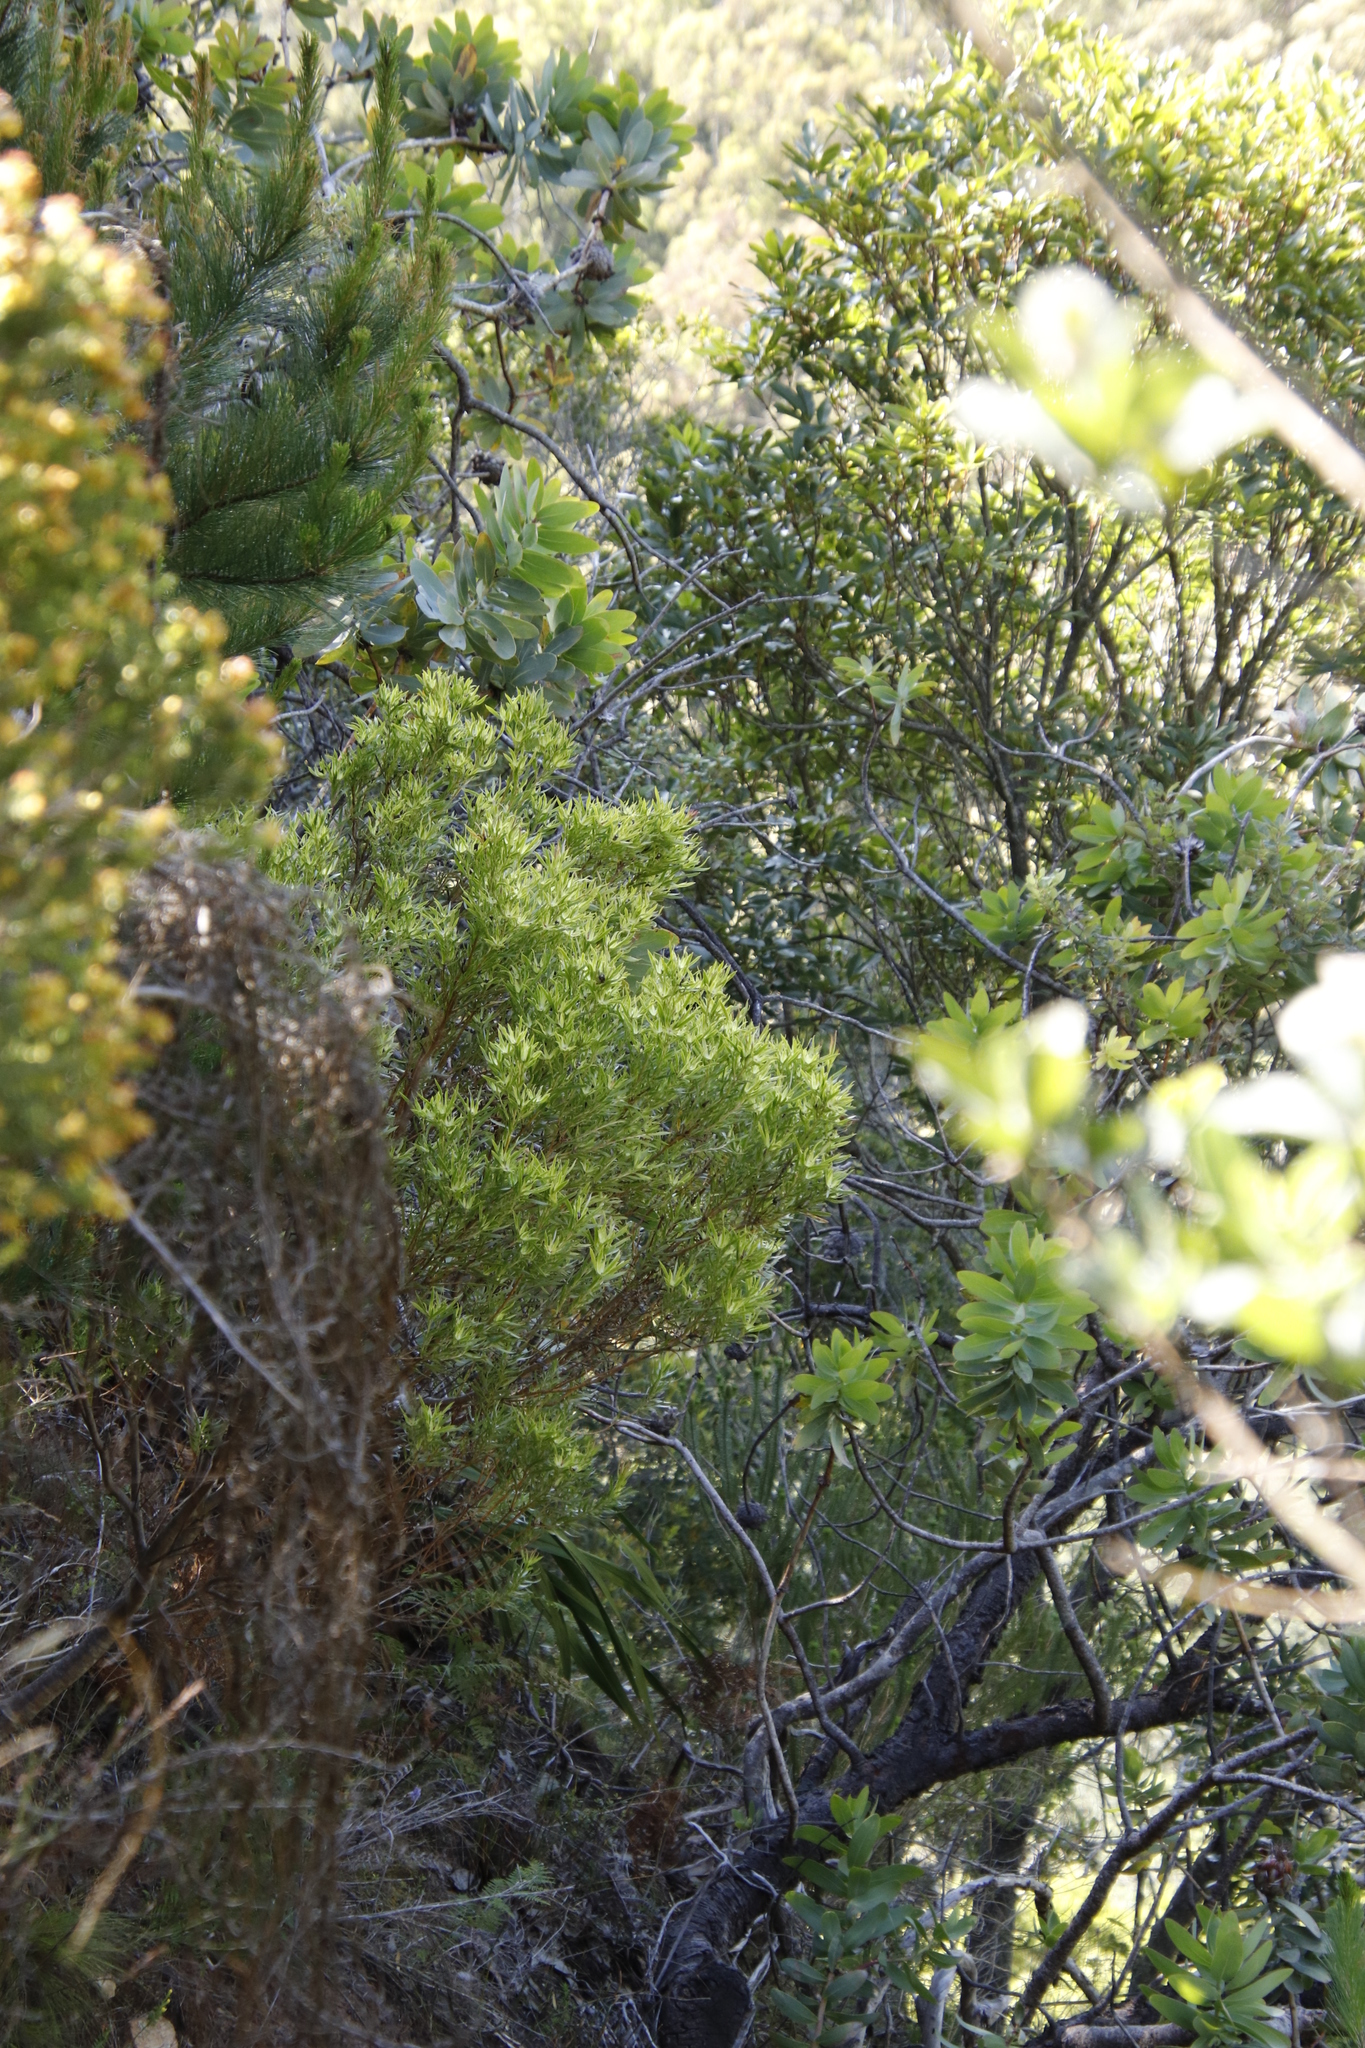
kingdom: Plantae
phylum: Tracheophyta
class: Magnoliopsida
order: Proteales
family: Proteaceae
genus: Leucadendron
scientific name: Leucadendron xanthoconus
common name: Sickle-leaf conebush
